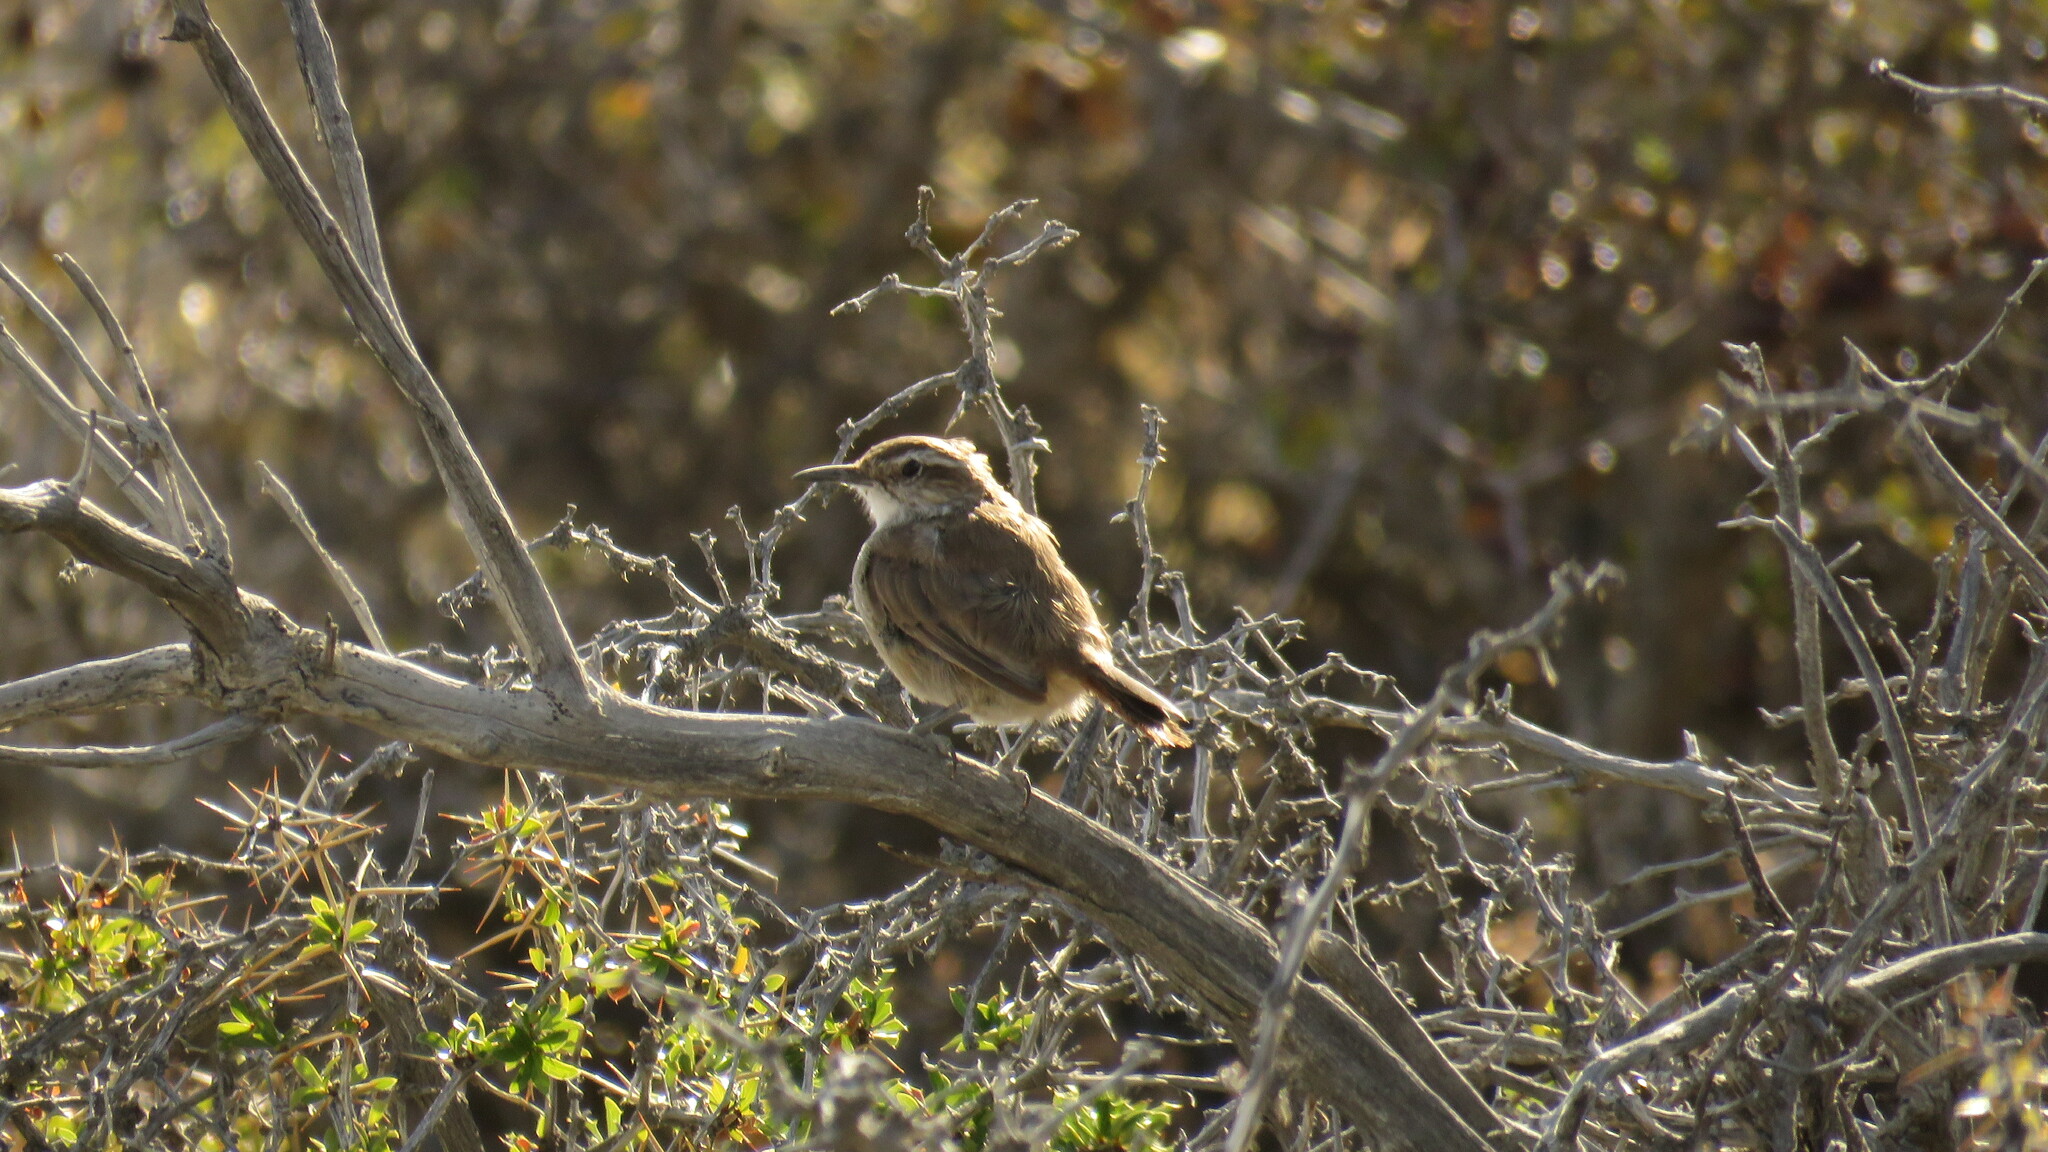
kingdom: Animalia
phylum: Chordata
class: Aves
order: Passeriformes
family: Furnariidae
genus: Eremobius
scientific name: Eremobius phoenicurus
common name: Band-tailed eremobius
